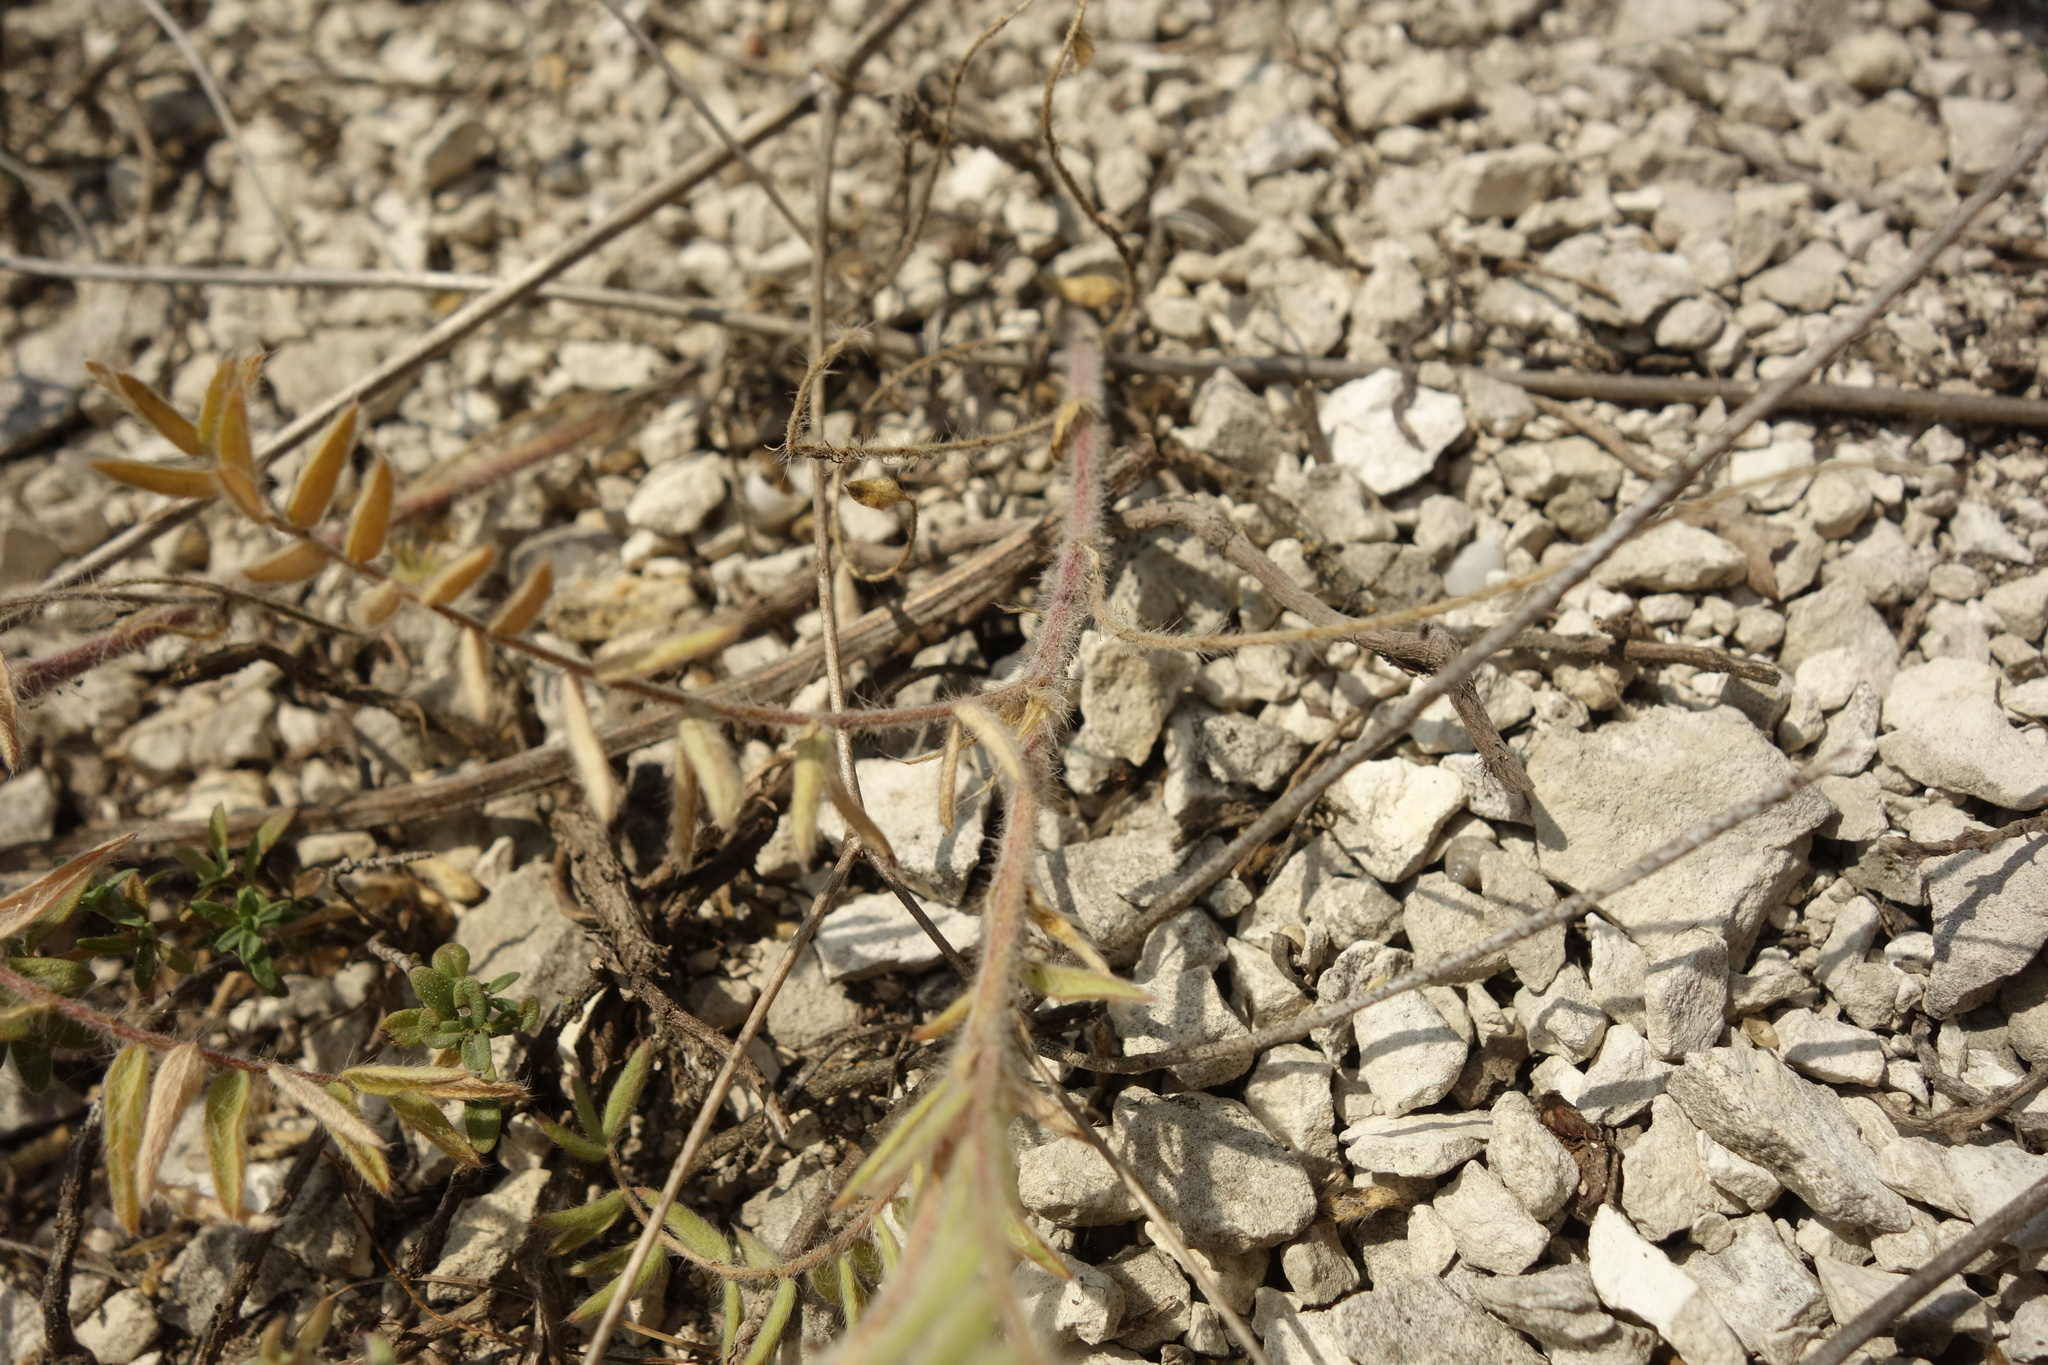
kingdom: Plantae
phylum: Tracheophyta
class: Magnoliopsida
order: Fabales
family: Fabaceae
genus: Oxytropis
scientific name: Oxytropis pilosa
